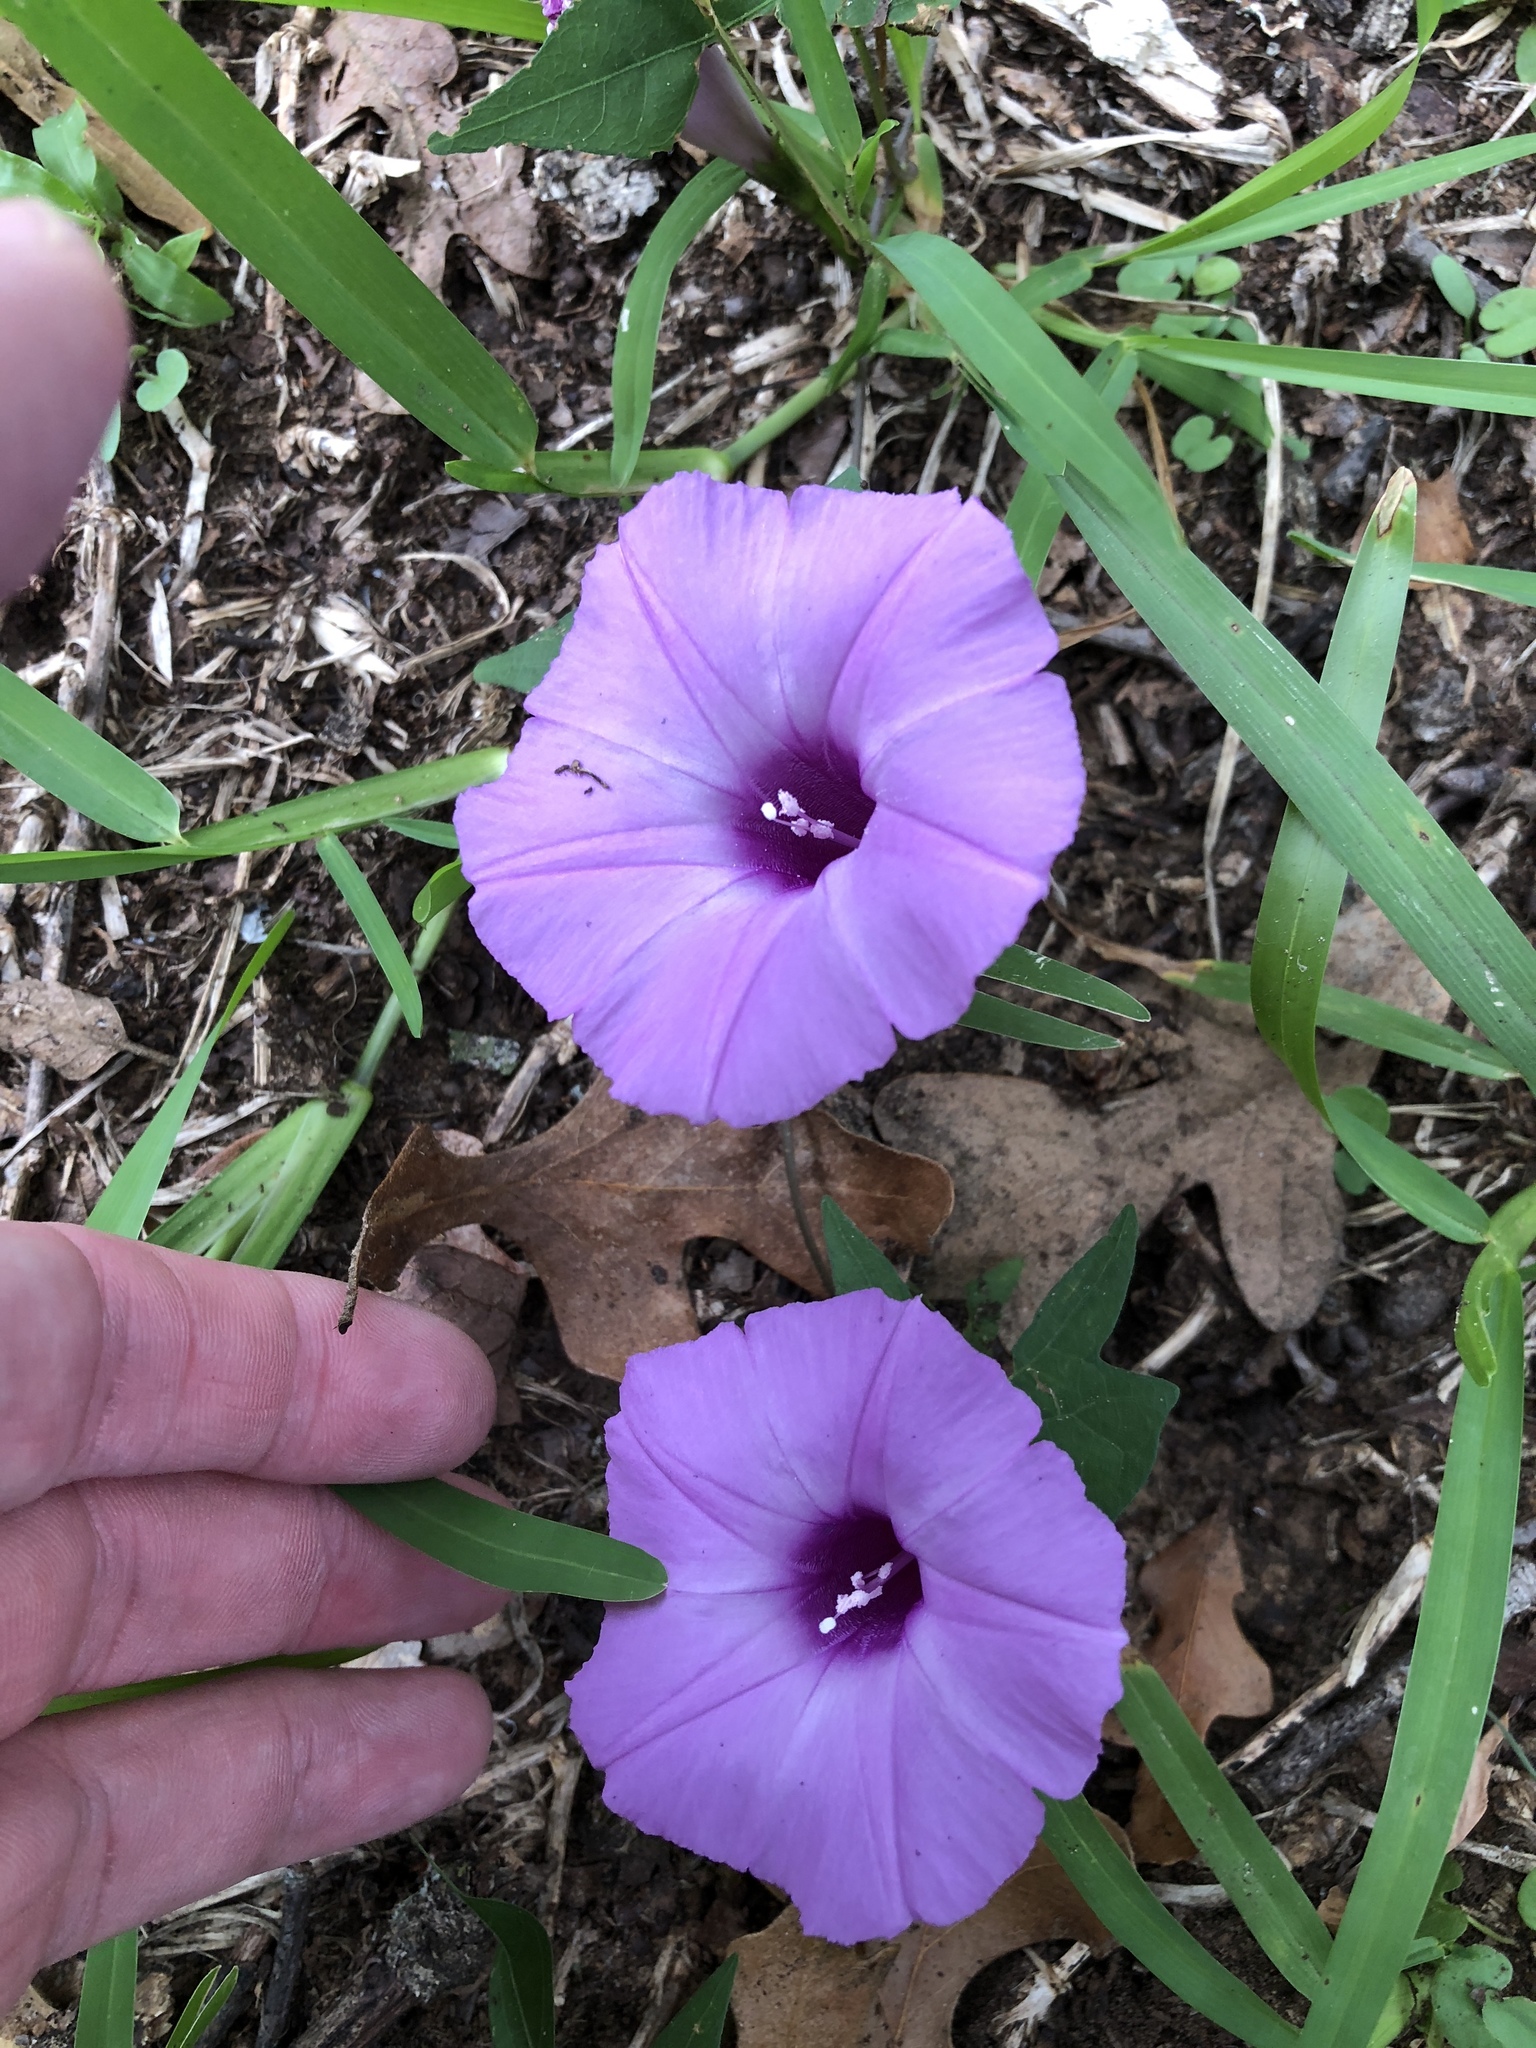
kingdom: Plantae
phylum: Tracheophyta
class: Magnoliopsida
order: Solanales
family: Convolvulaceae
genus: Ipomoea
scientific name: Ipomoea cordatotriloba
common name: Cotton morning glory
